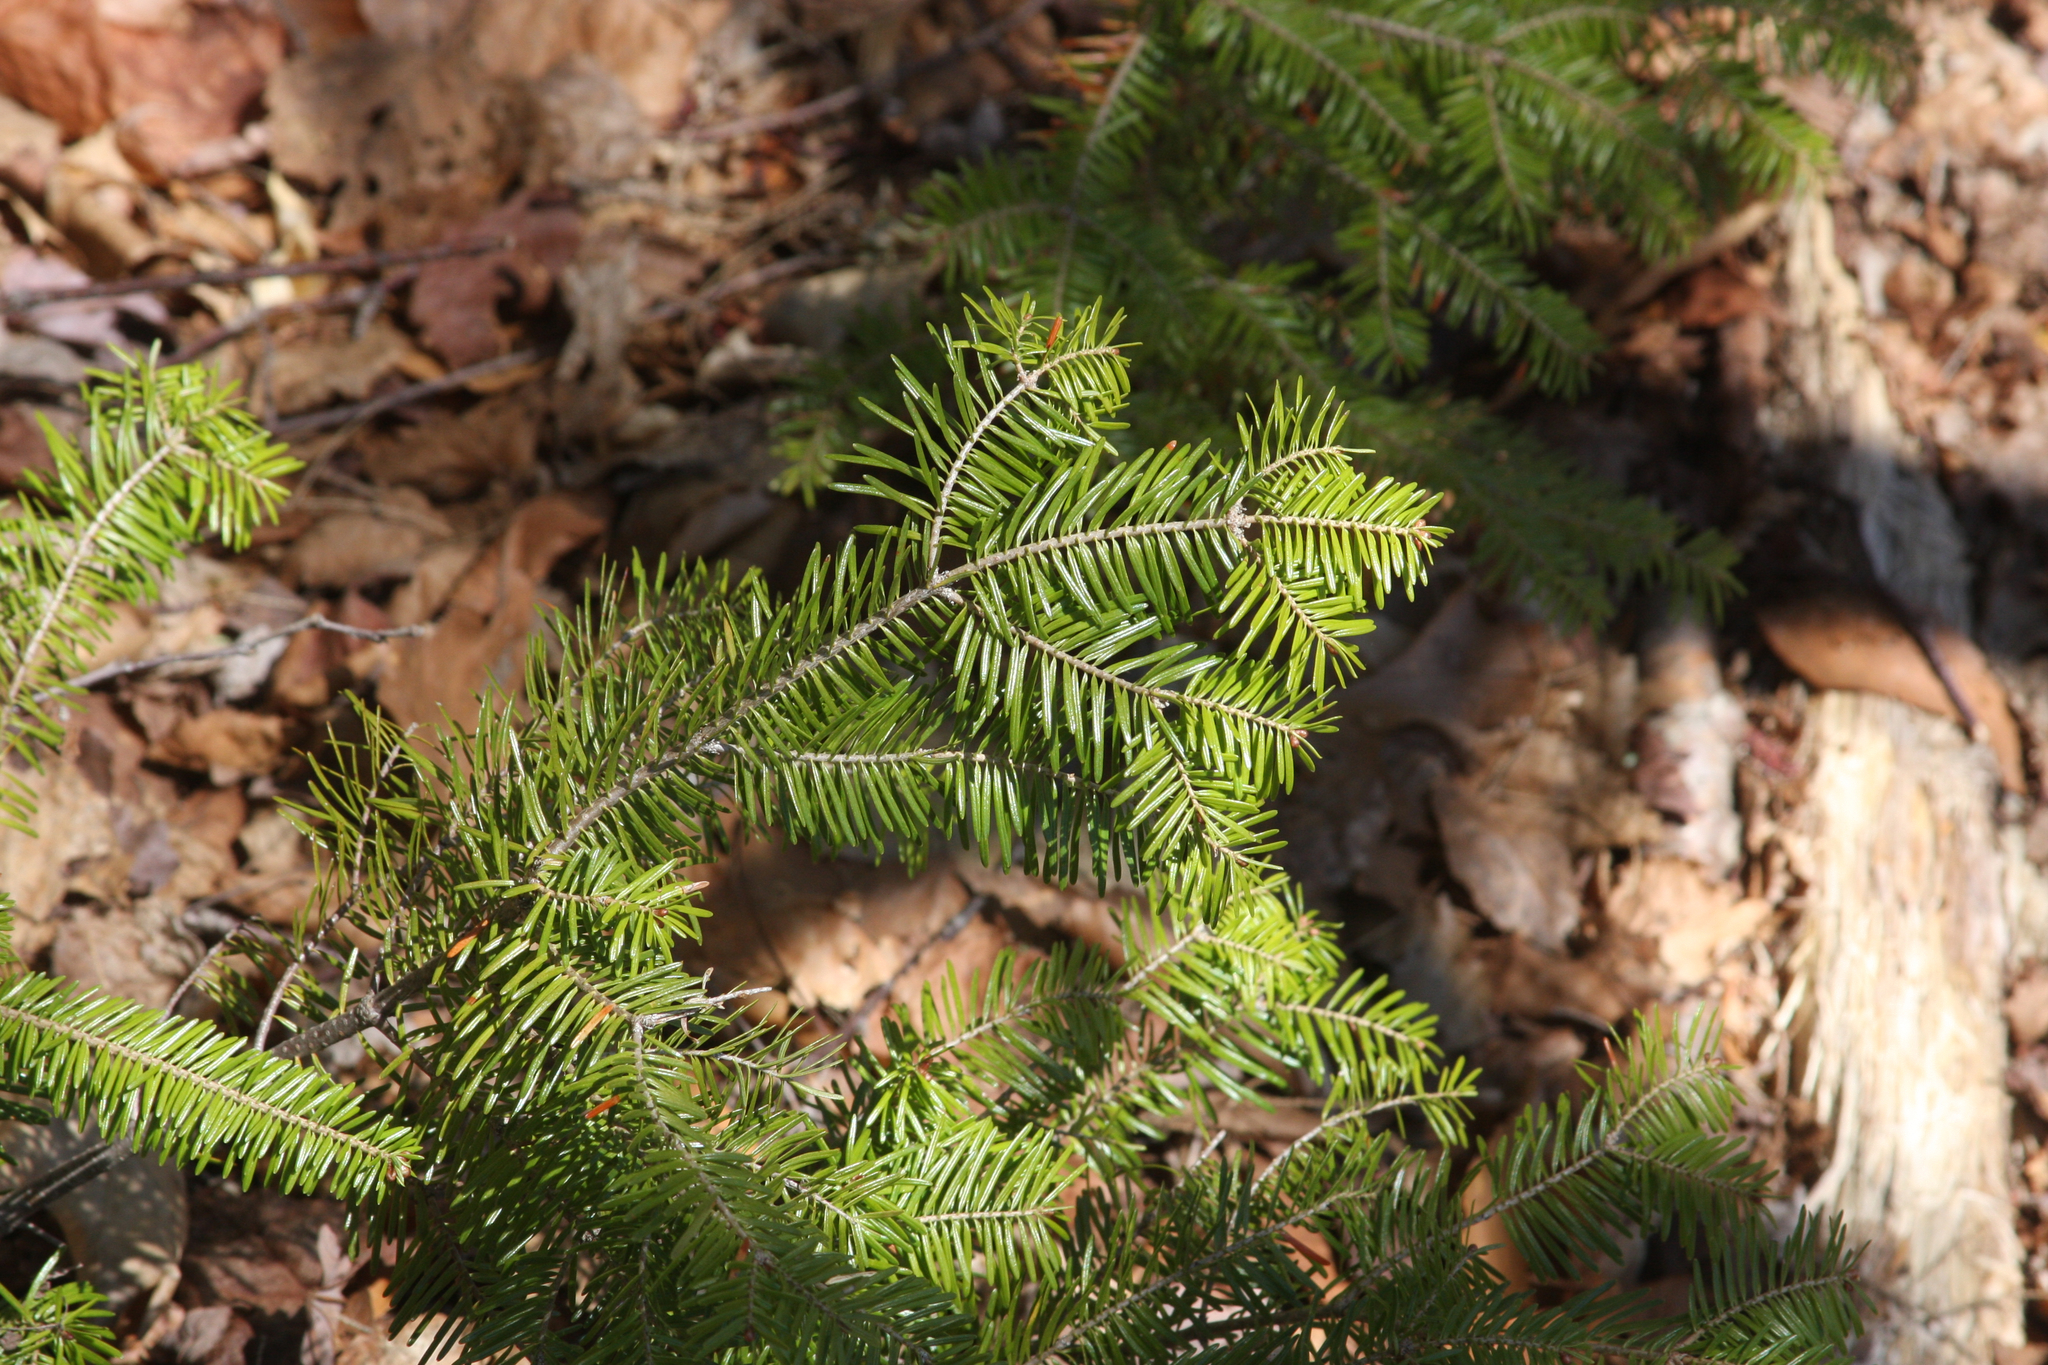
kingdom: Plantae
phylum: Tracheophyta
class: Pinopsida
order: Pinales
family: Pinaceae
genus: Abies
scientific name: Abies balsamea
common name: Balsam fir
